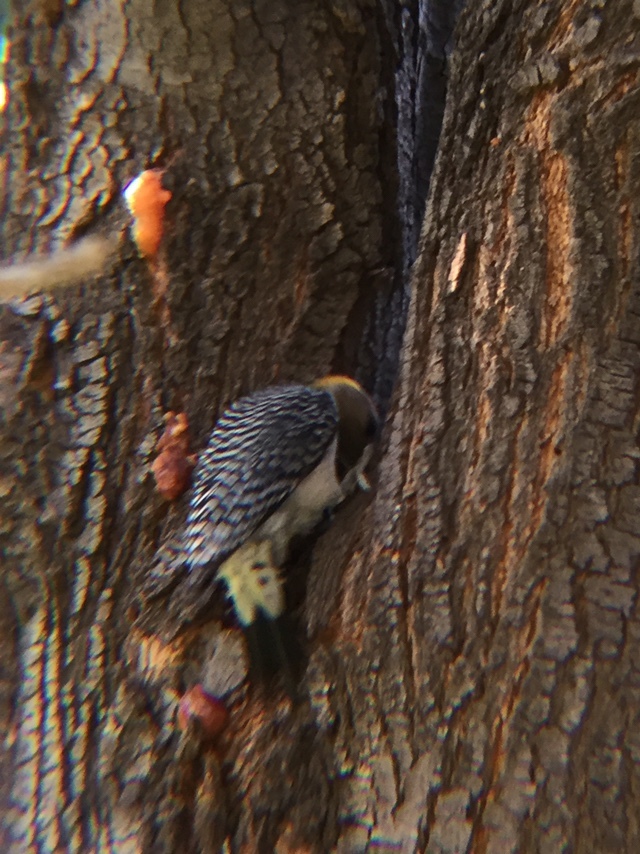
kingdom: Animalia
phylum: Chordata
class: Aves
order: Piciformes
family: Picidae
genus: Melanerpes
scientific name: Melanerpes aurifrons
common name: Golden-fronted woodpecker
